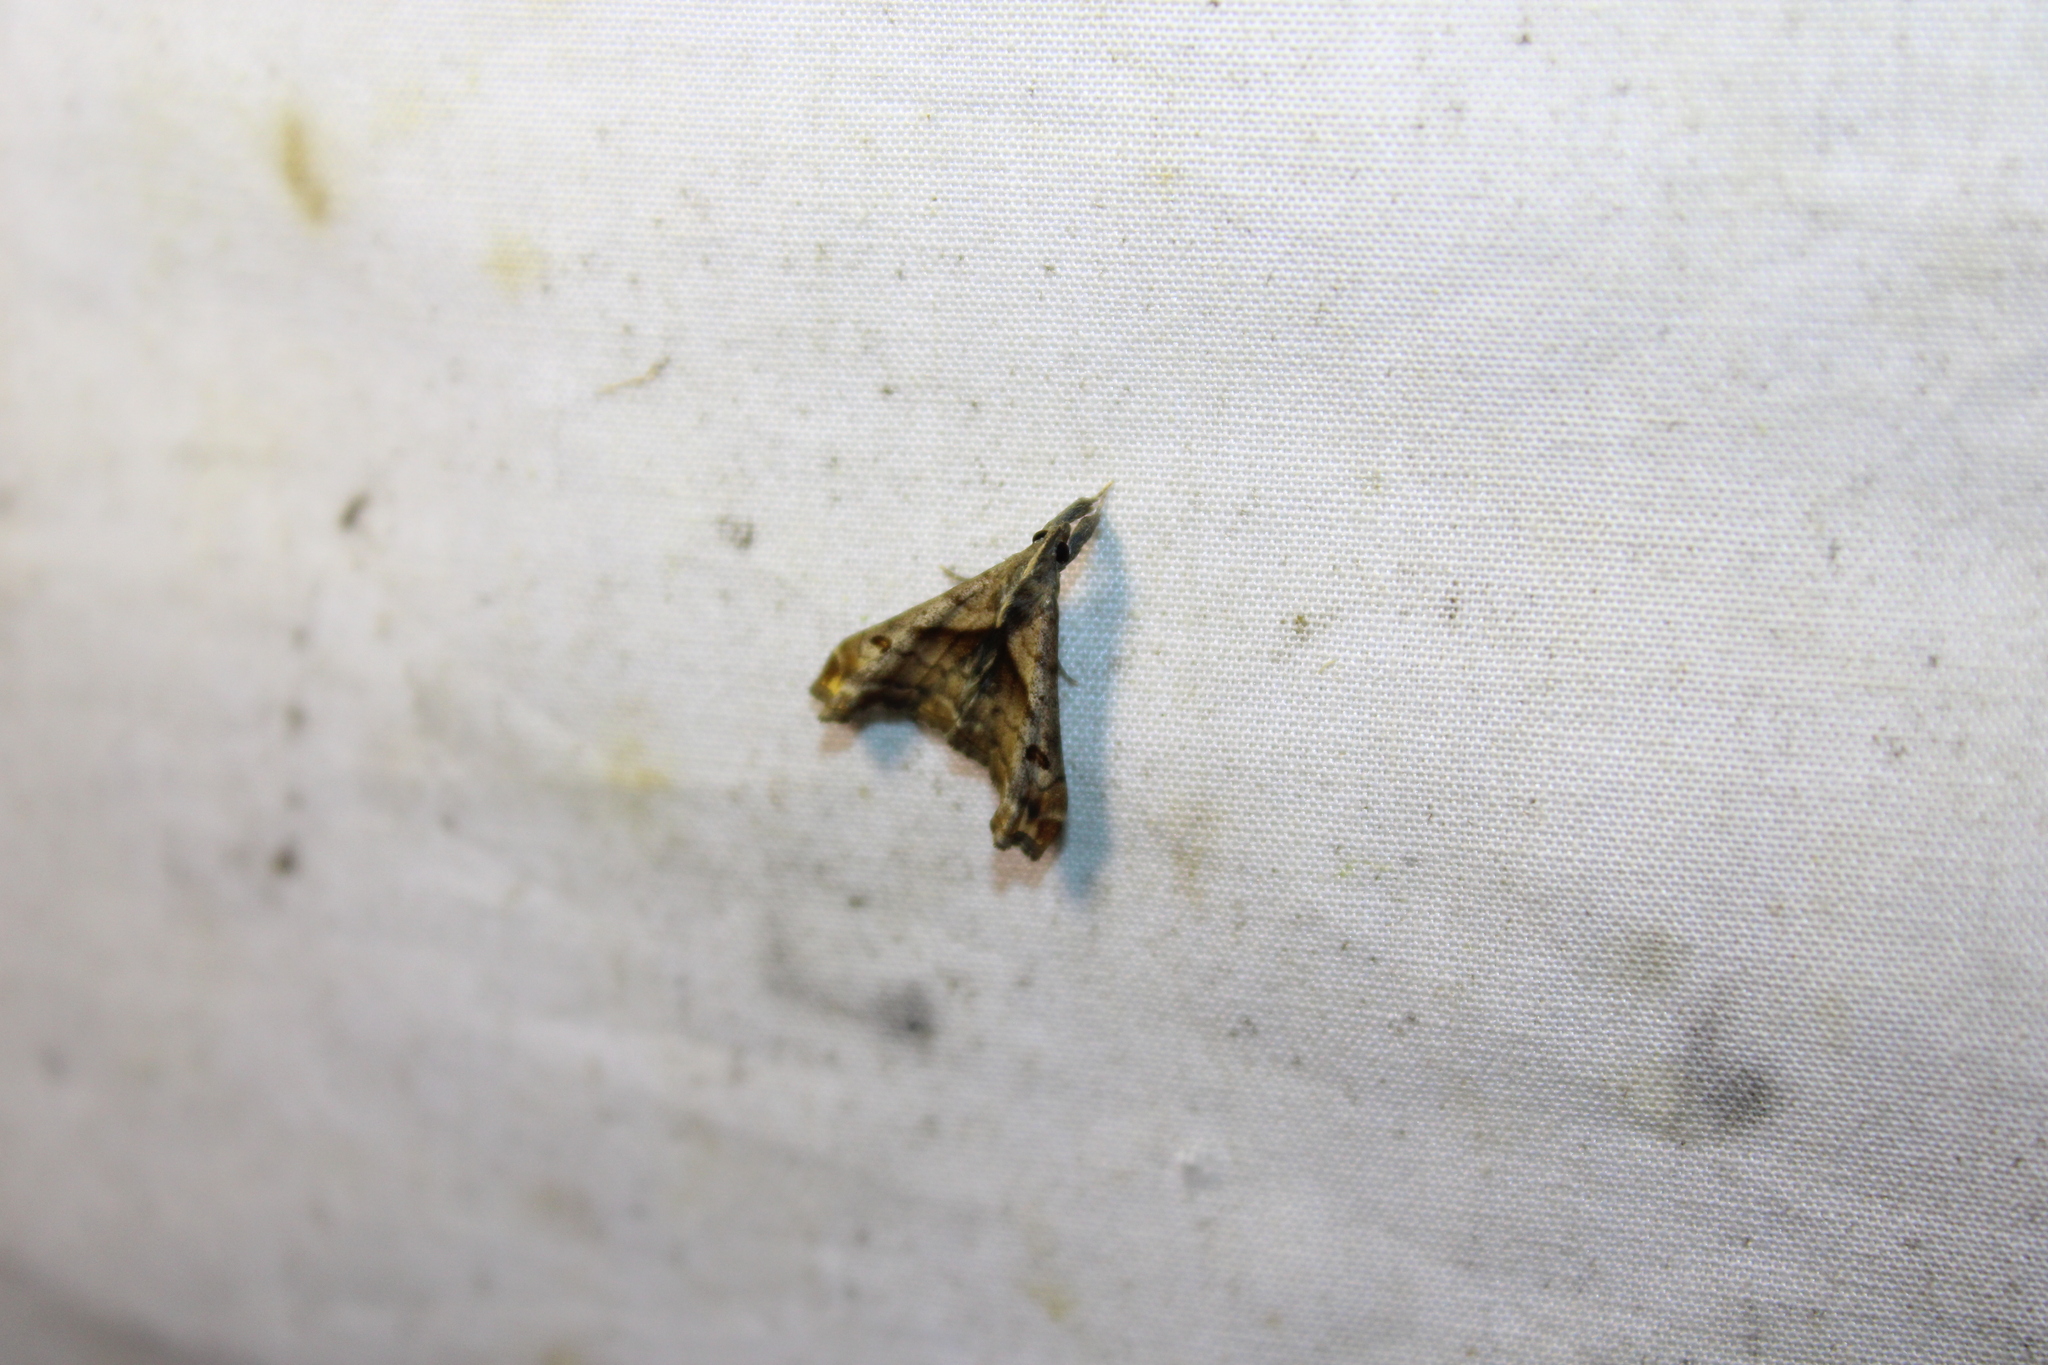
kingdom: Animalia
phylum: Arthropoda
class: Insecta
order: Lepidoptera
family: Erebidae
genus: Palthis
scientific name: Palthis angulalis
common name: Dark-spotted palthis moth
